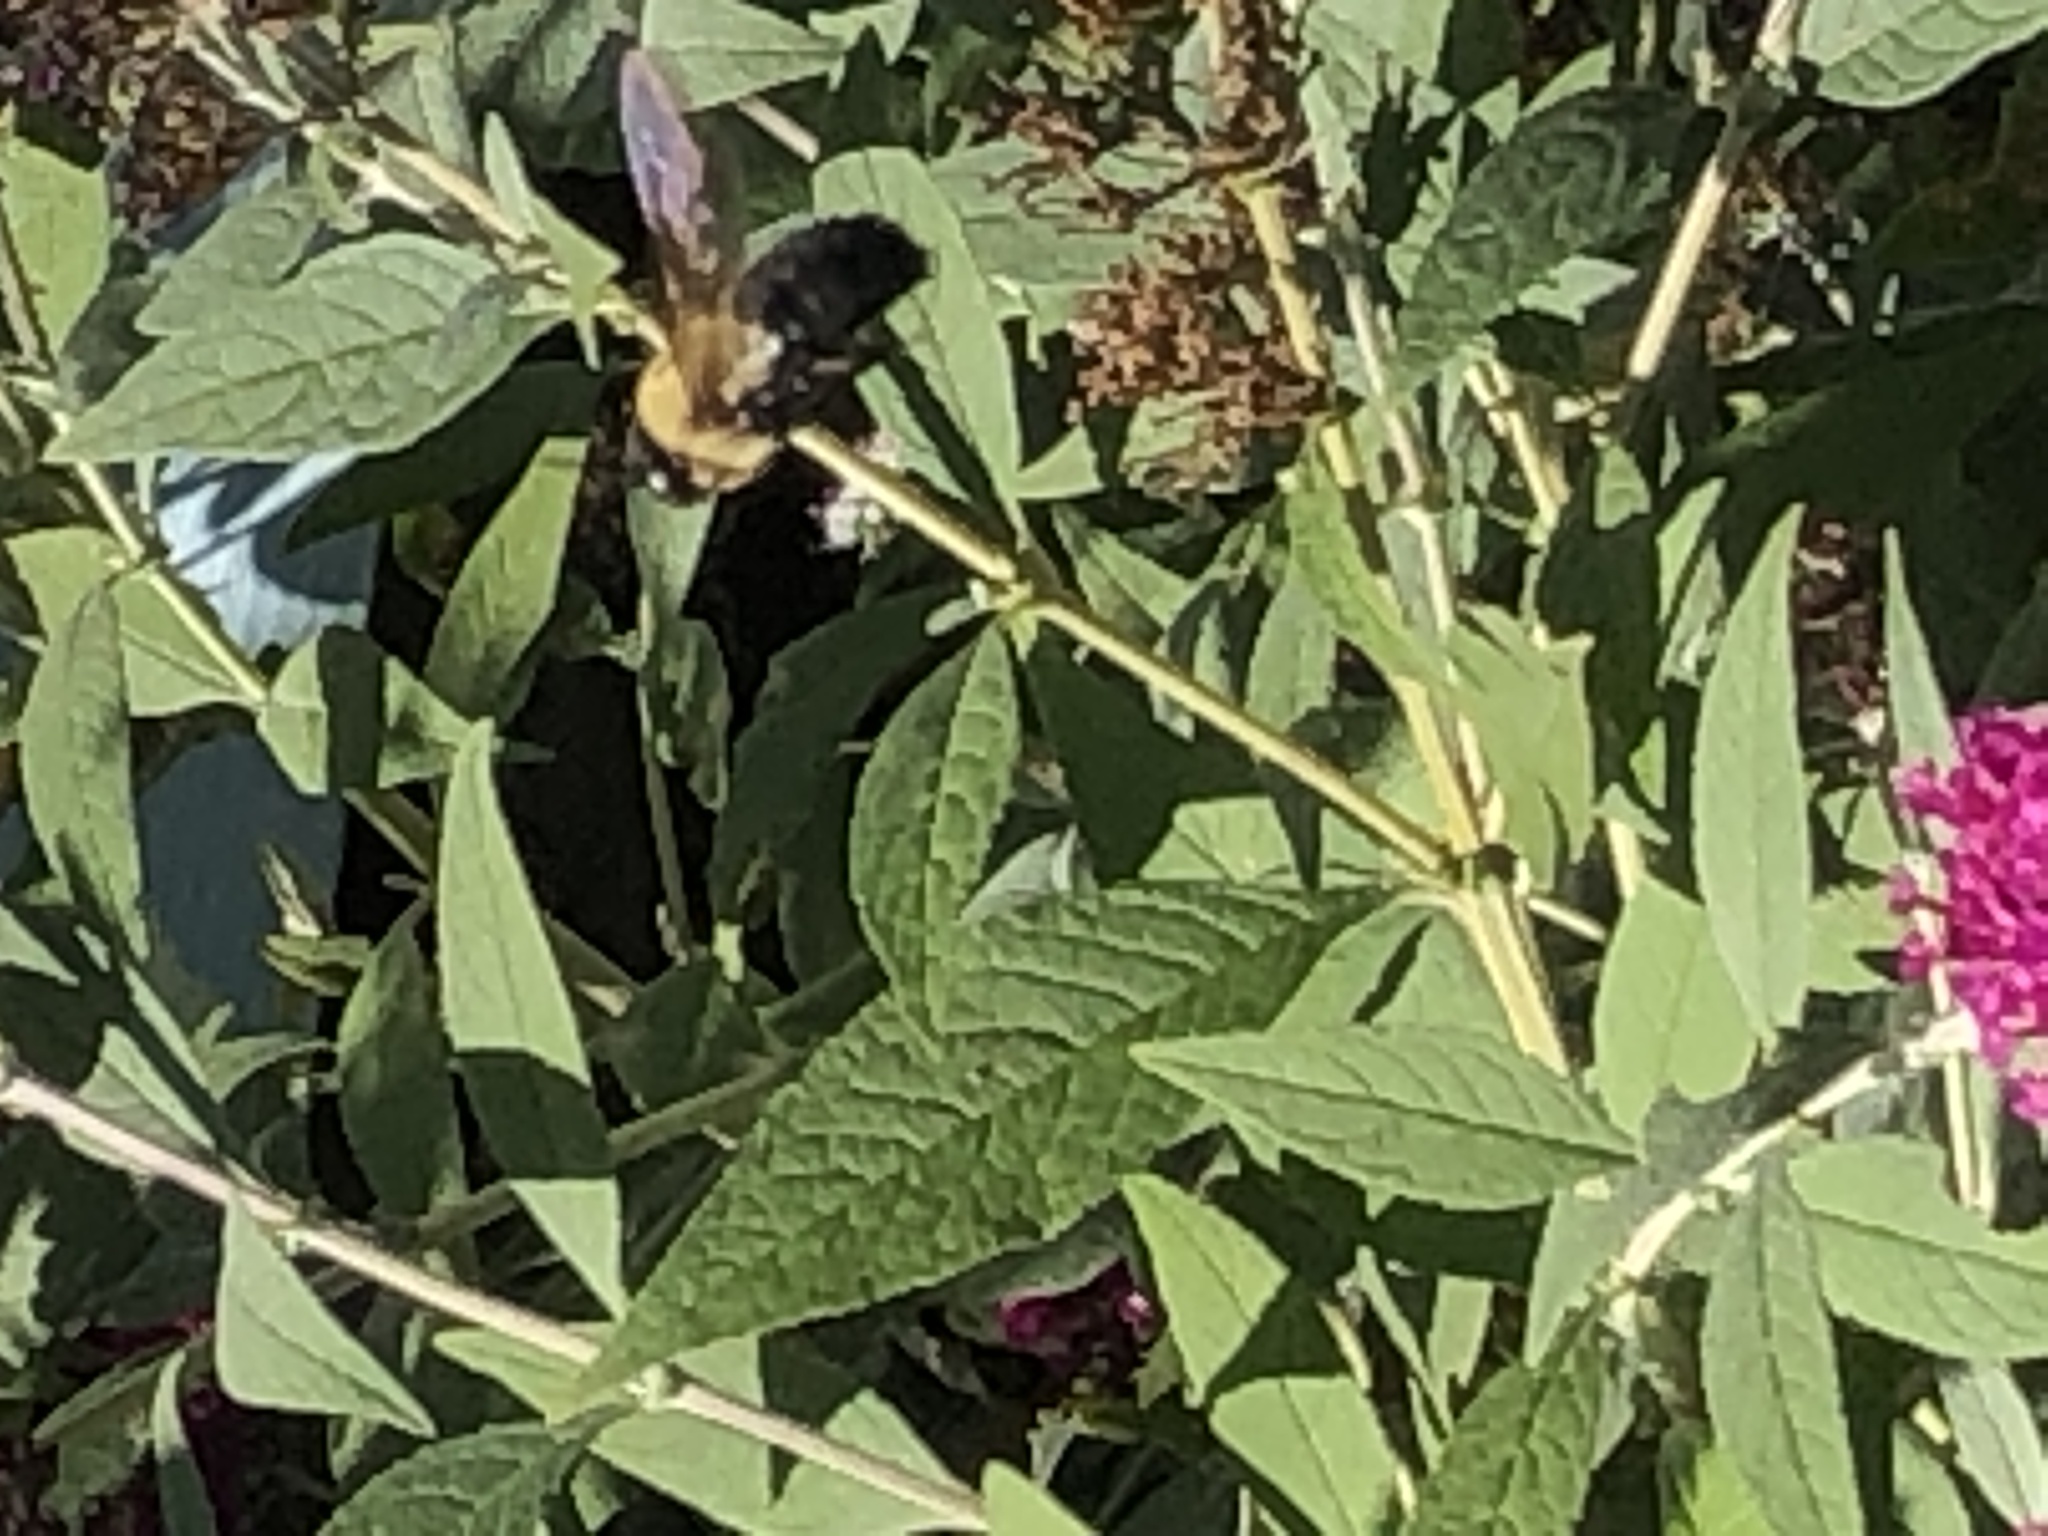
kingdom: Animalia
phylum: Arthropoda
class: Insecta
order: Hymenoptera
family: Apidae
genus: Xylocopa
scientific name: Xylocopa virginica
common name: Carpenter bee
